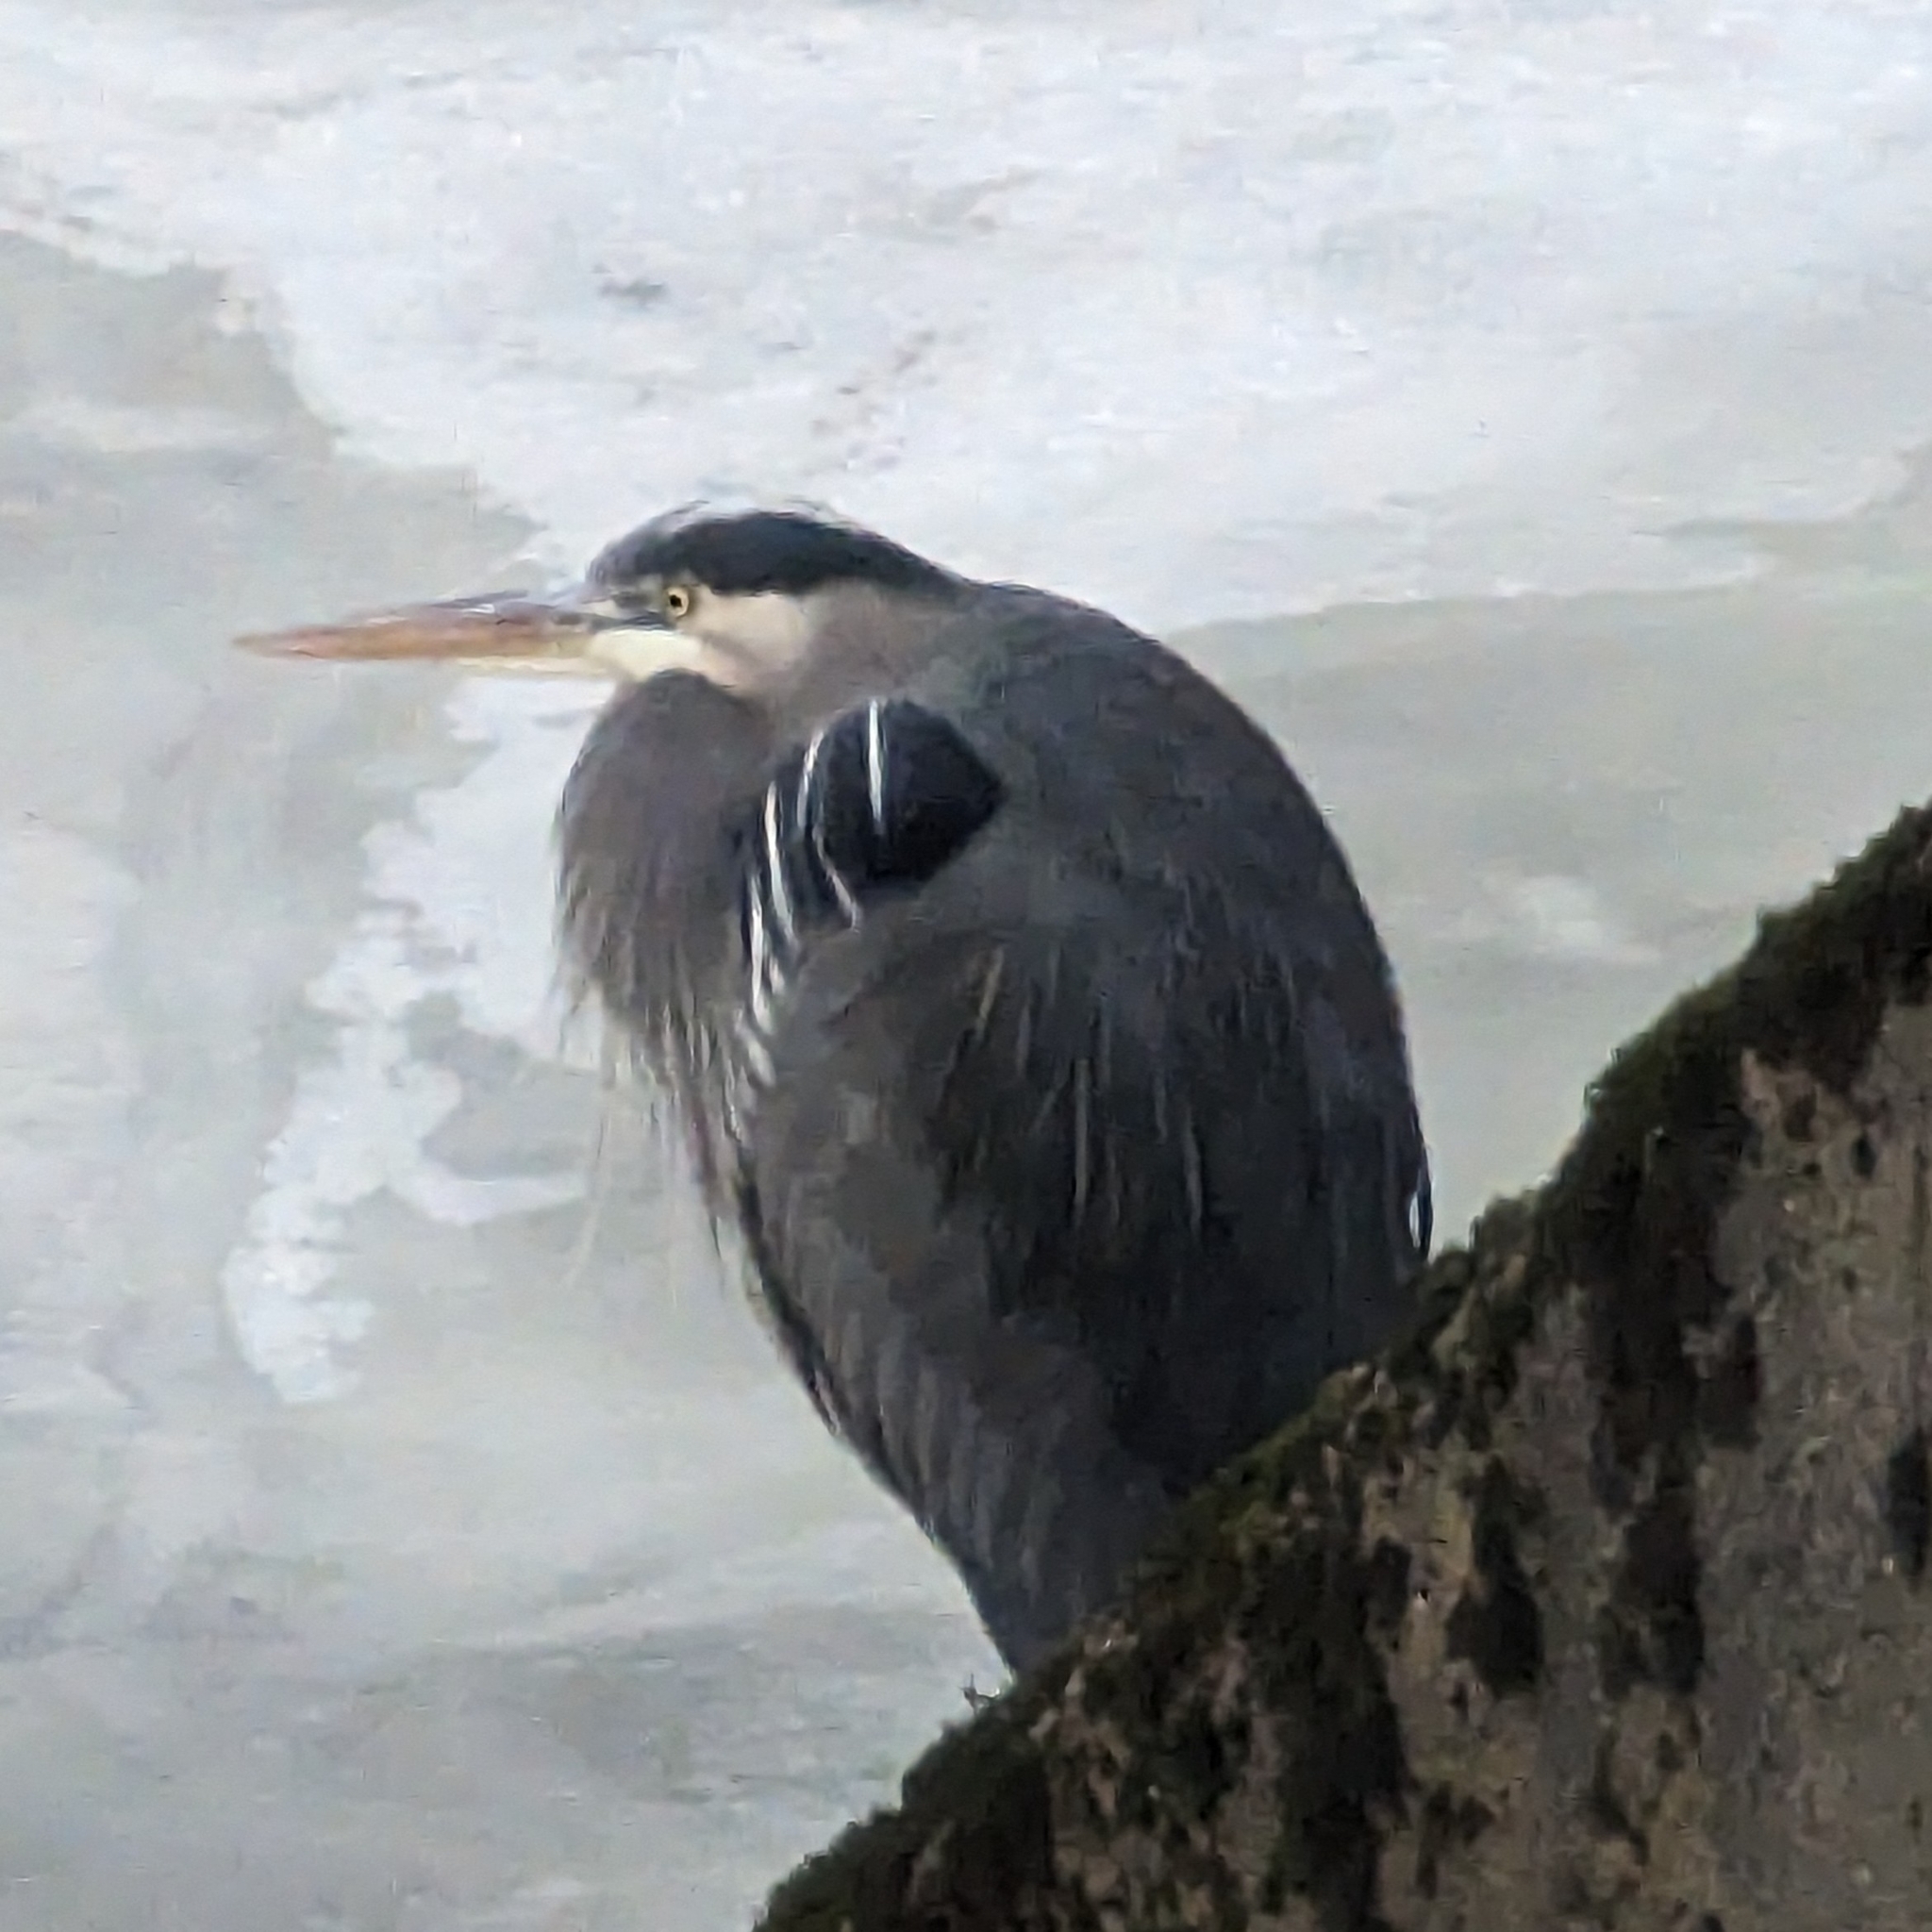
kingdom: Animalia
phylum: Chordata
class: Aves
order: Pelecaniformes
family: Ardeidae
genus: Ardea
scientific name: Ardea herodias
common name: Great blue heron
